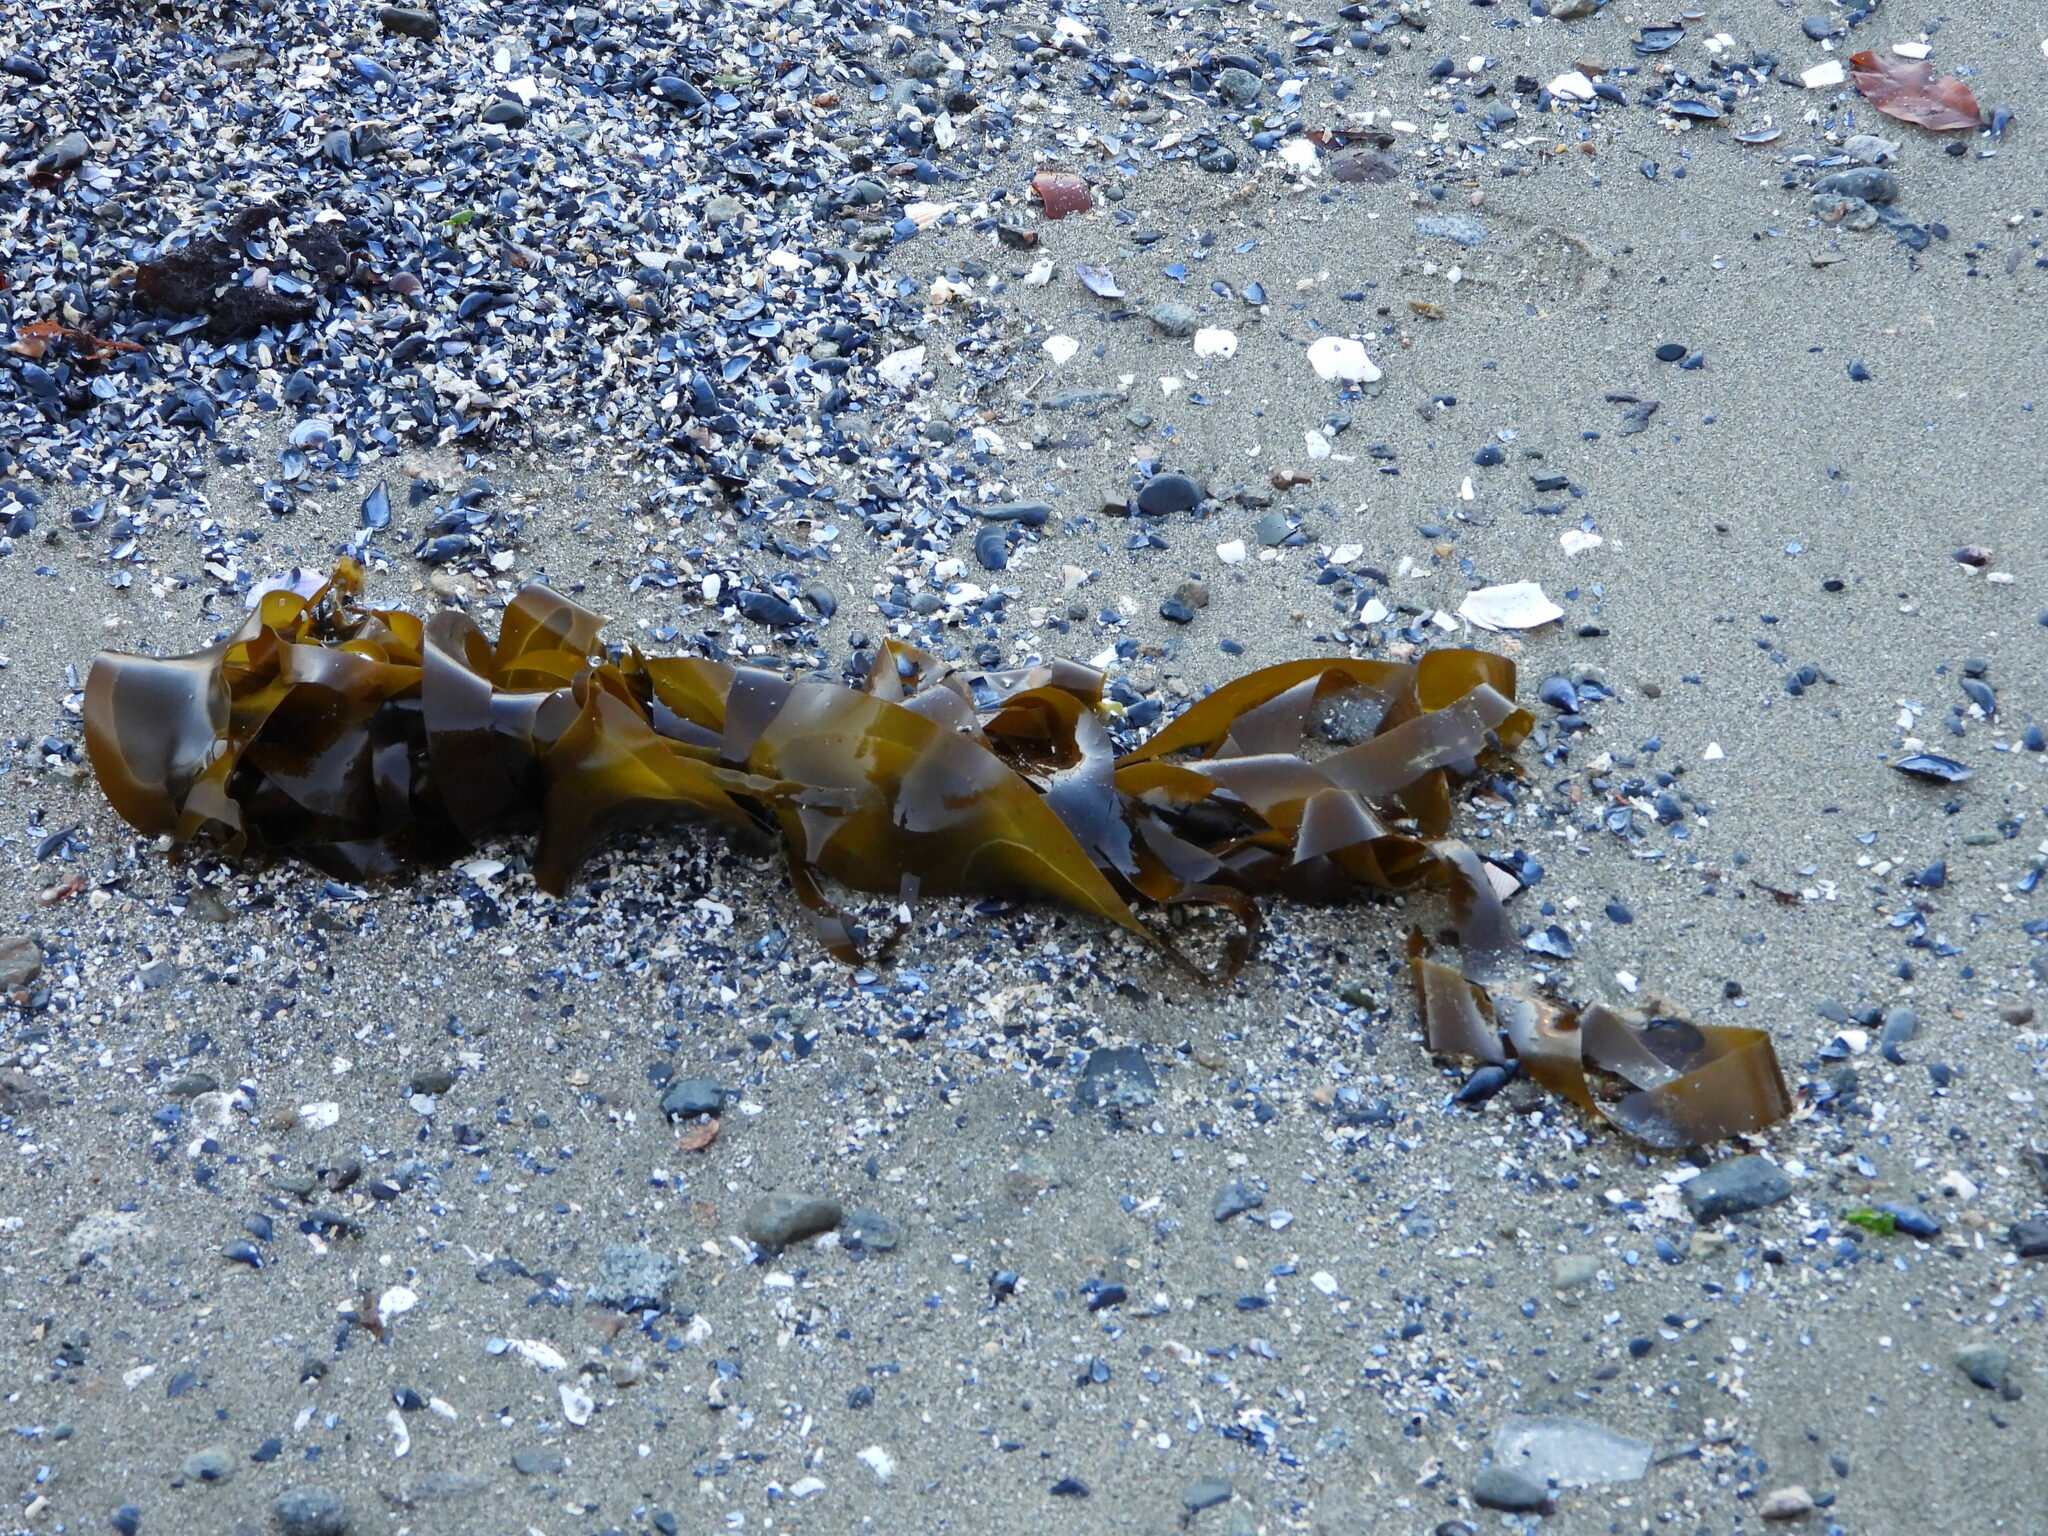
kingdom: Chromista
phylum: Ochrophyta
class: Phaeophyceae
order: Laminariales
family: Laminariaceae
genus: Nereocystis
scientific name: Nereocystis luetkeana
